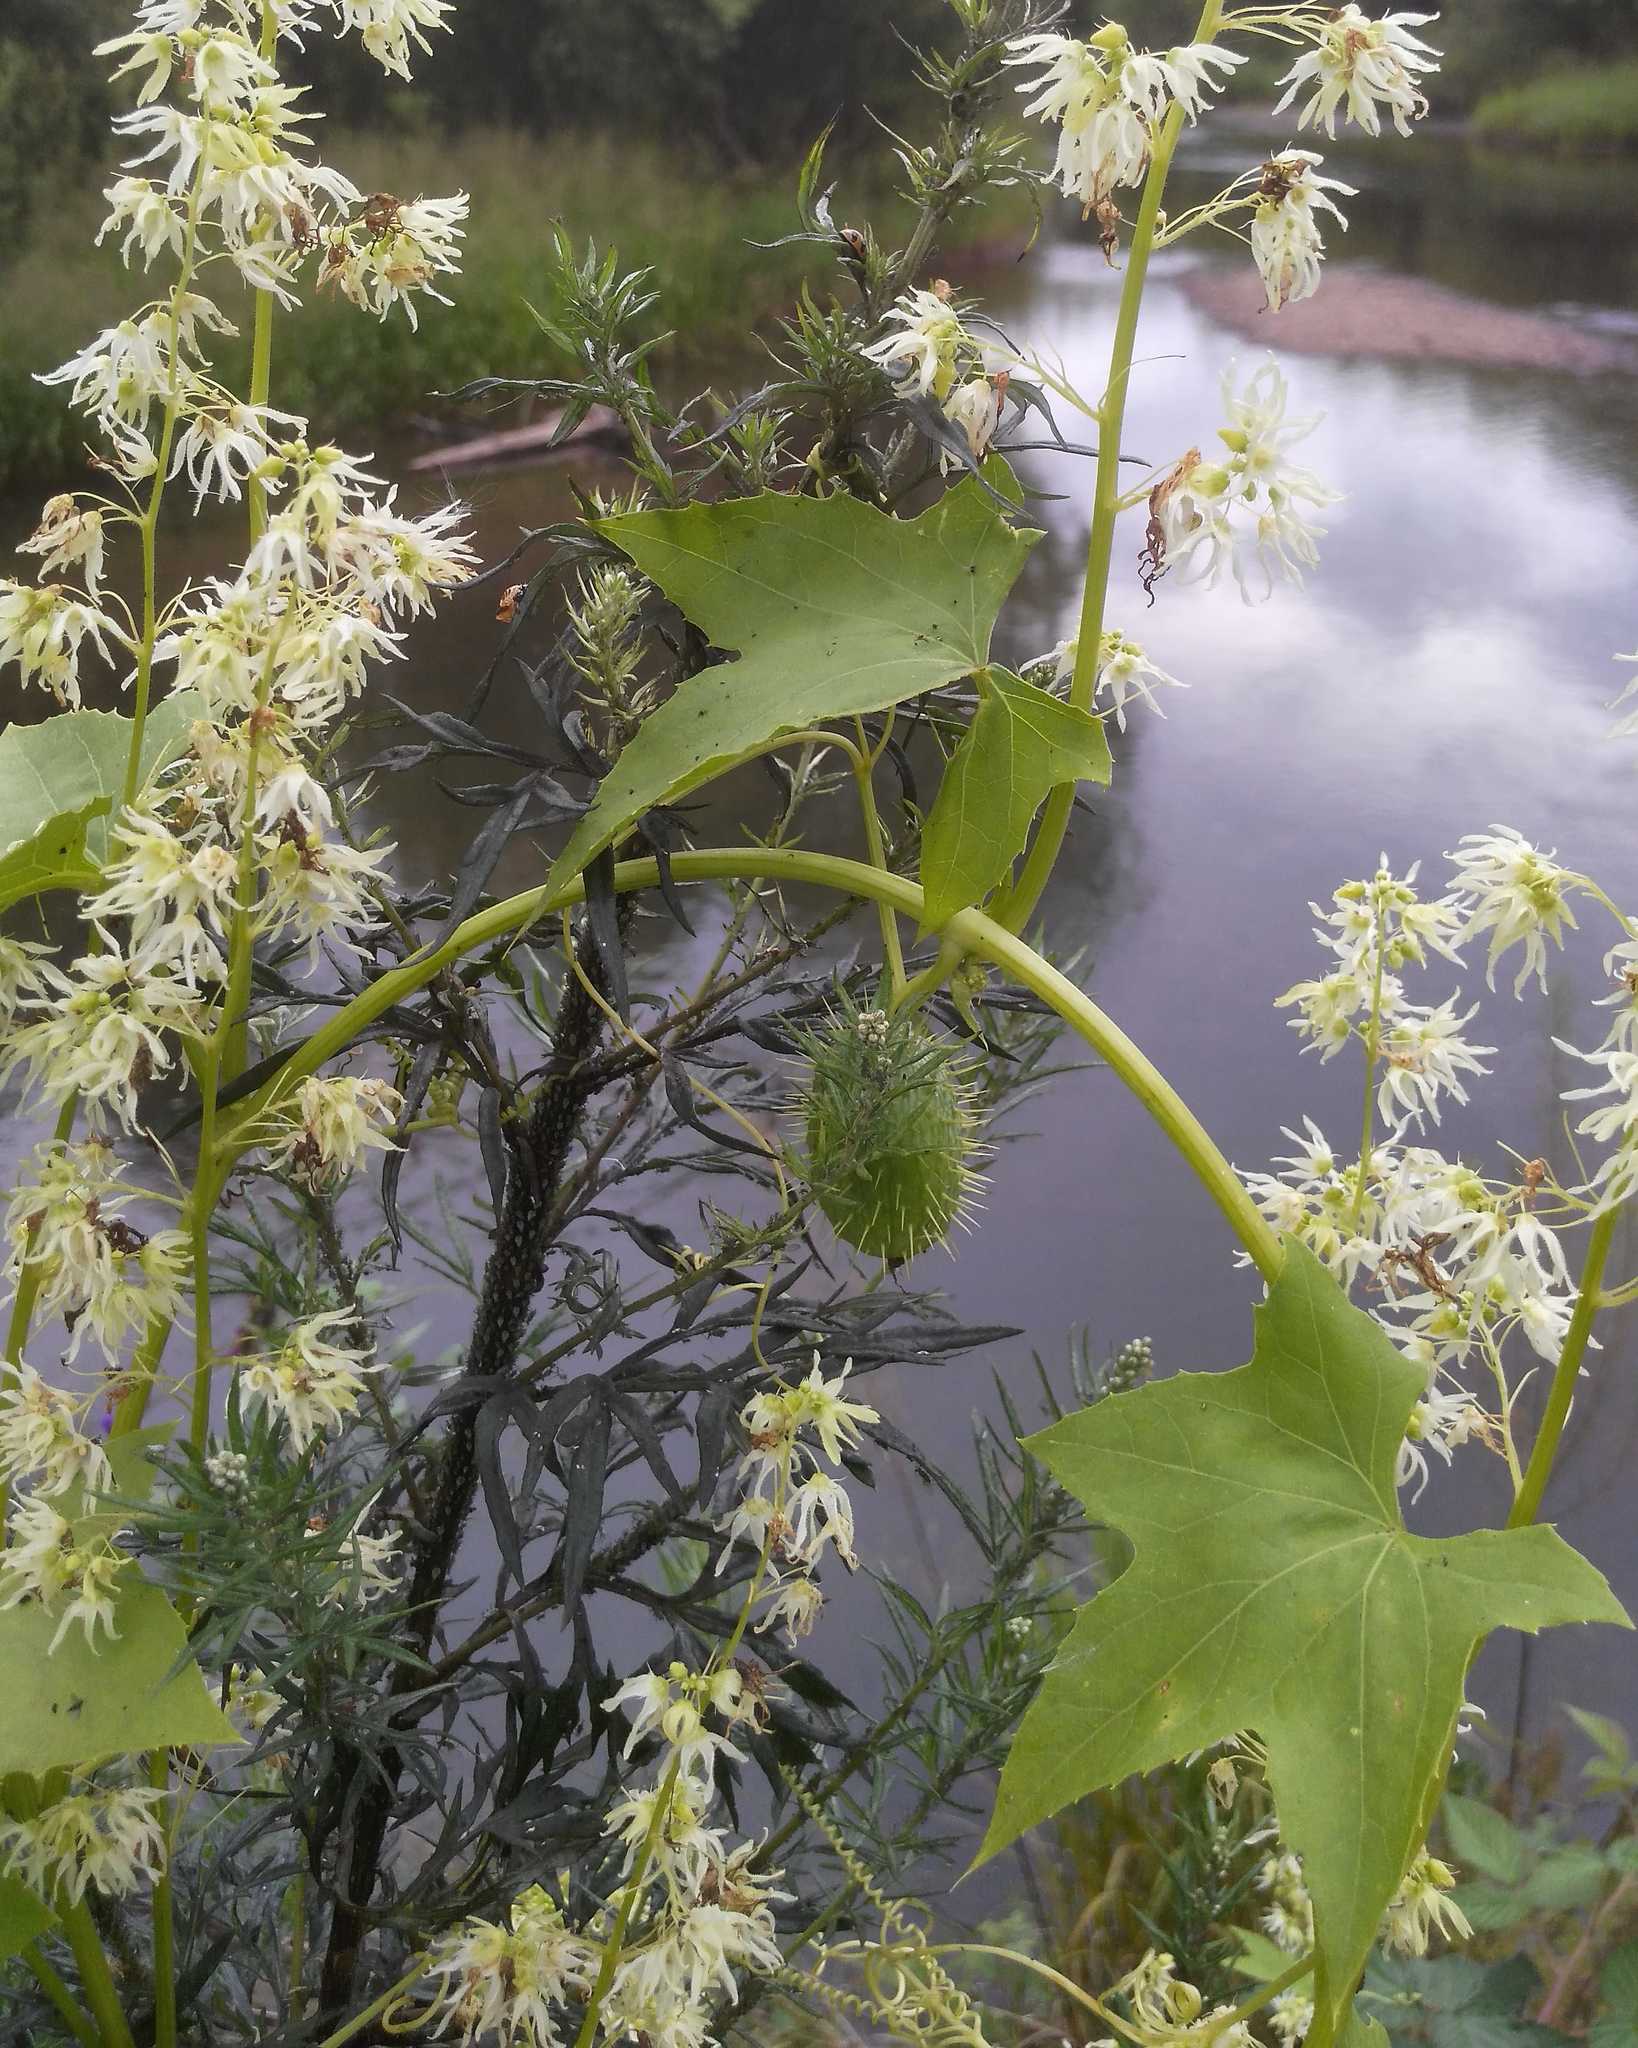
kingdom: Plantae
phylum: Tracheophyta
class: Magnoliopsida
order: Cucurbitales
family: Cucurbitaceae
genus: Echinocystis
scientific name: Echinocystis lobata
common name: Wild cucumber
